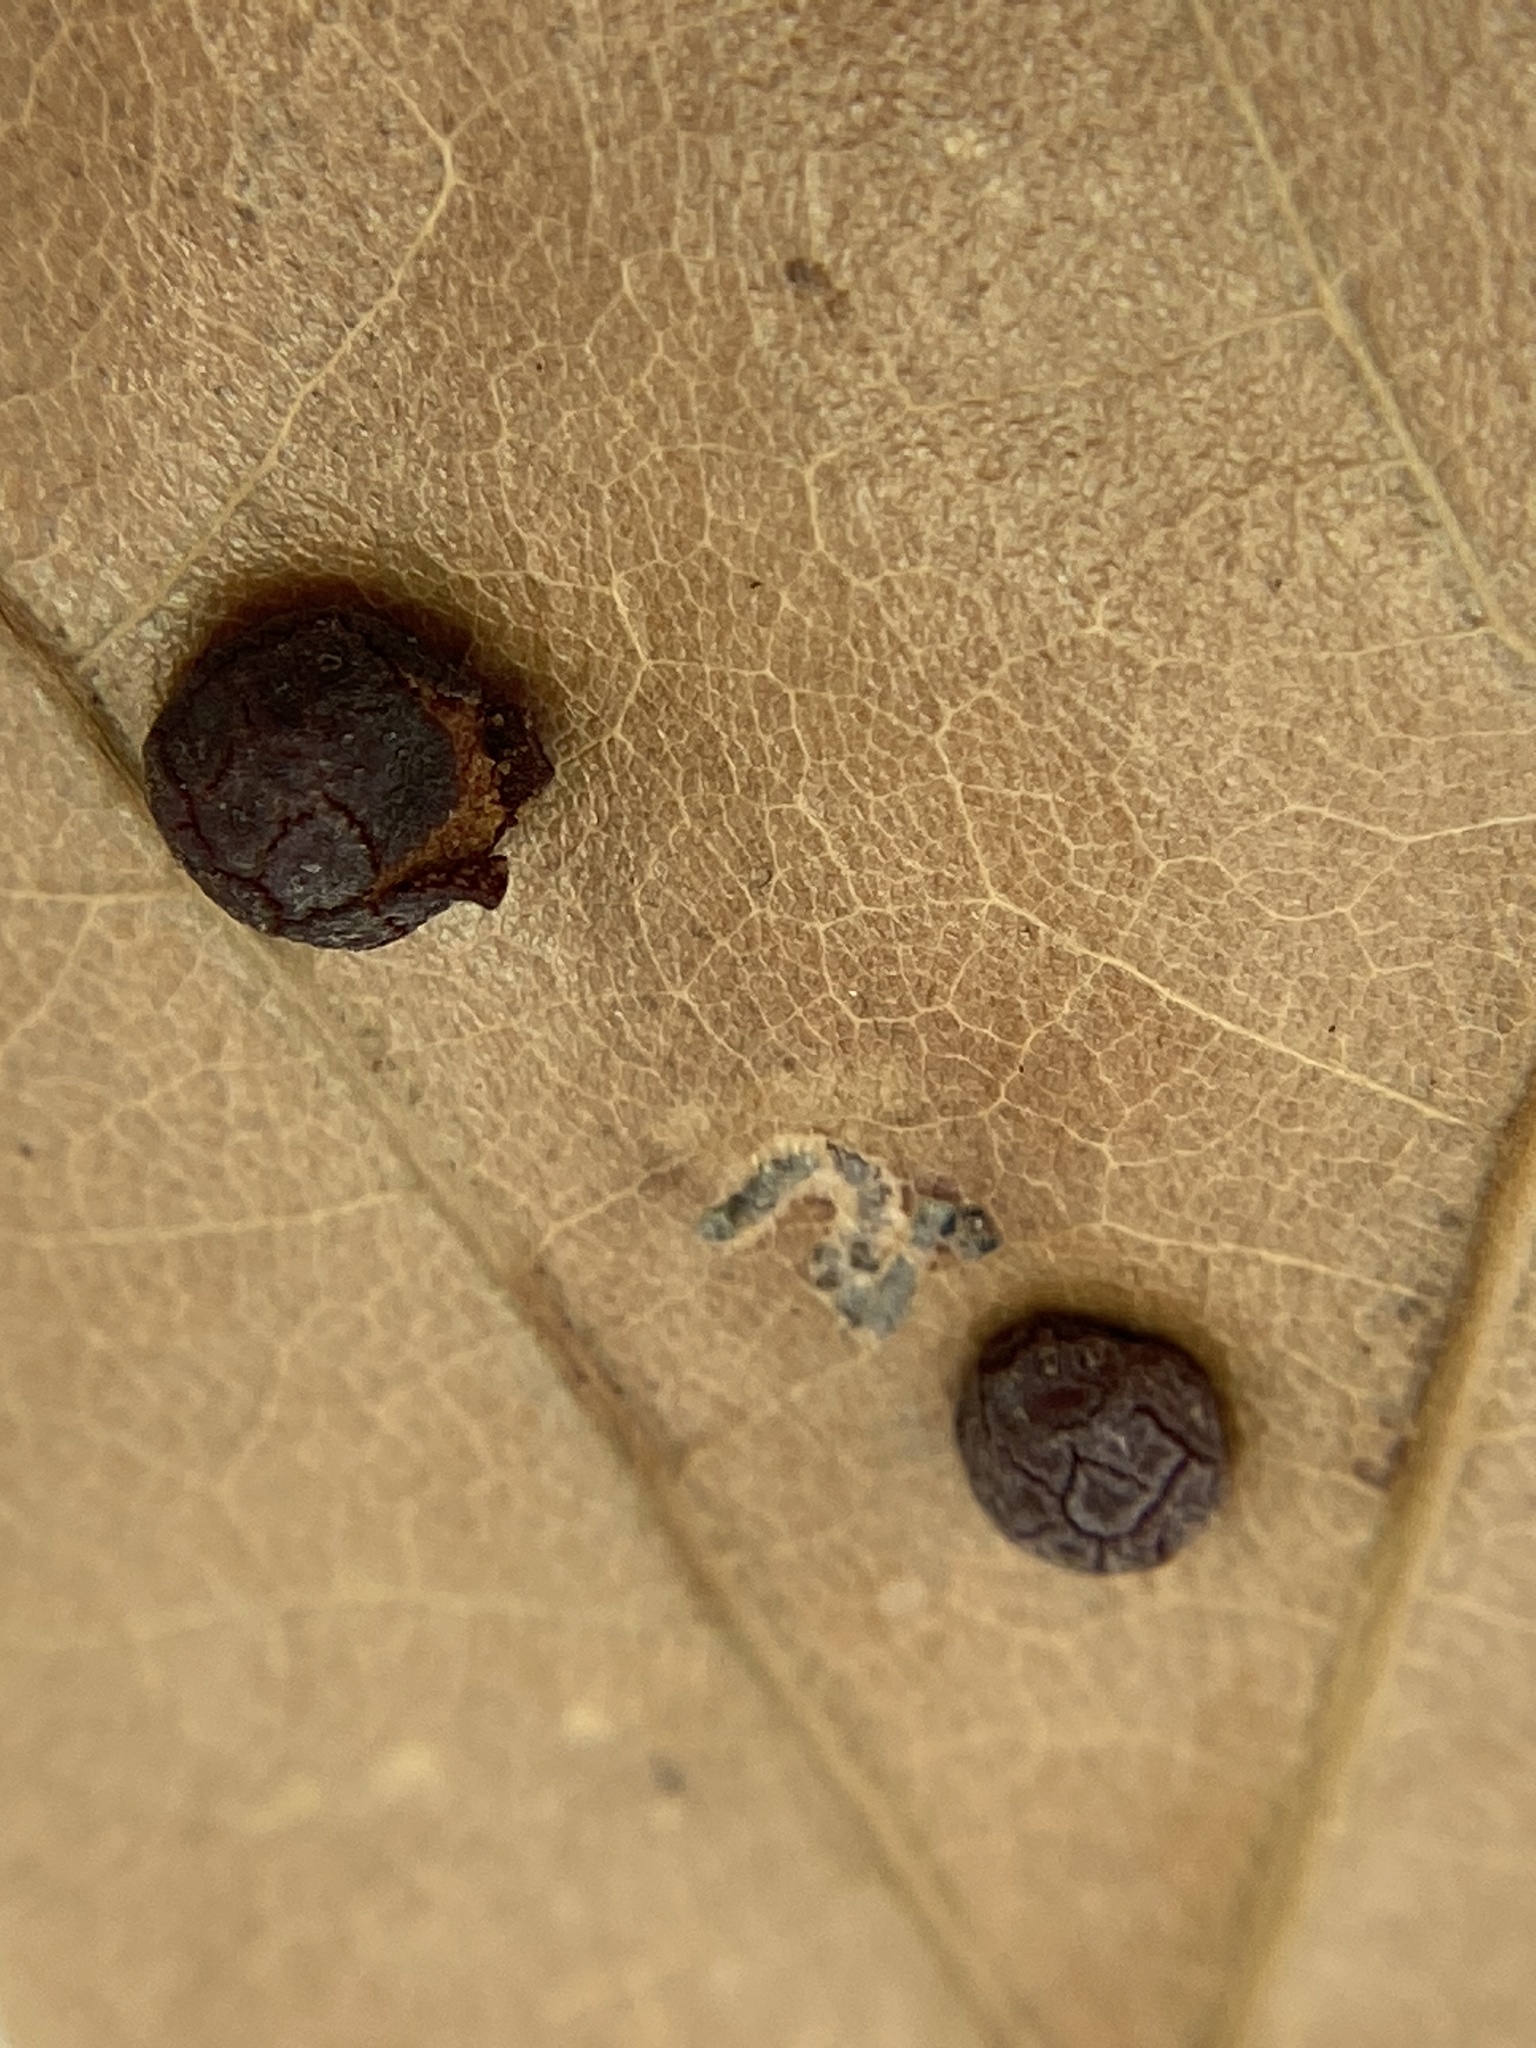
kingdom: Animalia
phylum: Arthropoda
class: Insecta
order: Diptera
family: Cecidomyiidae
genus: Polystepha
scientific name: Polystepha globosa
